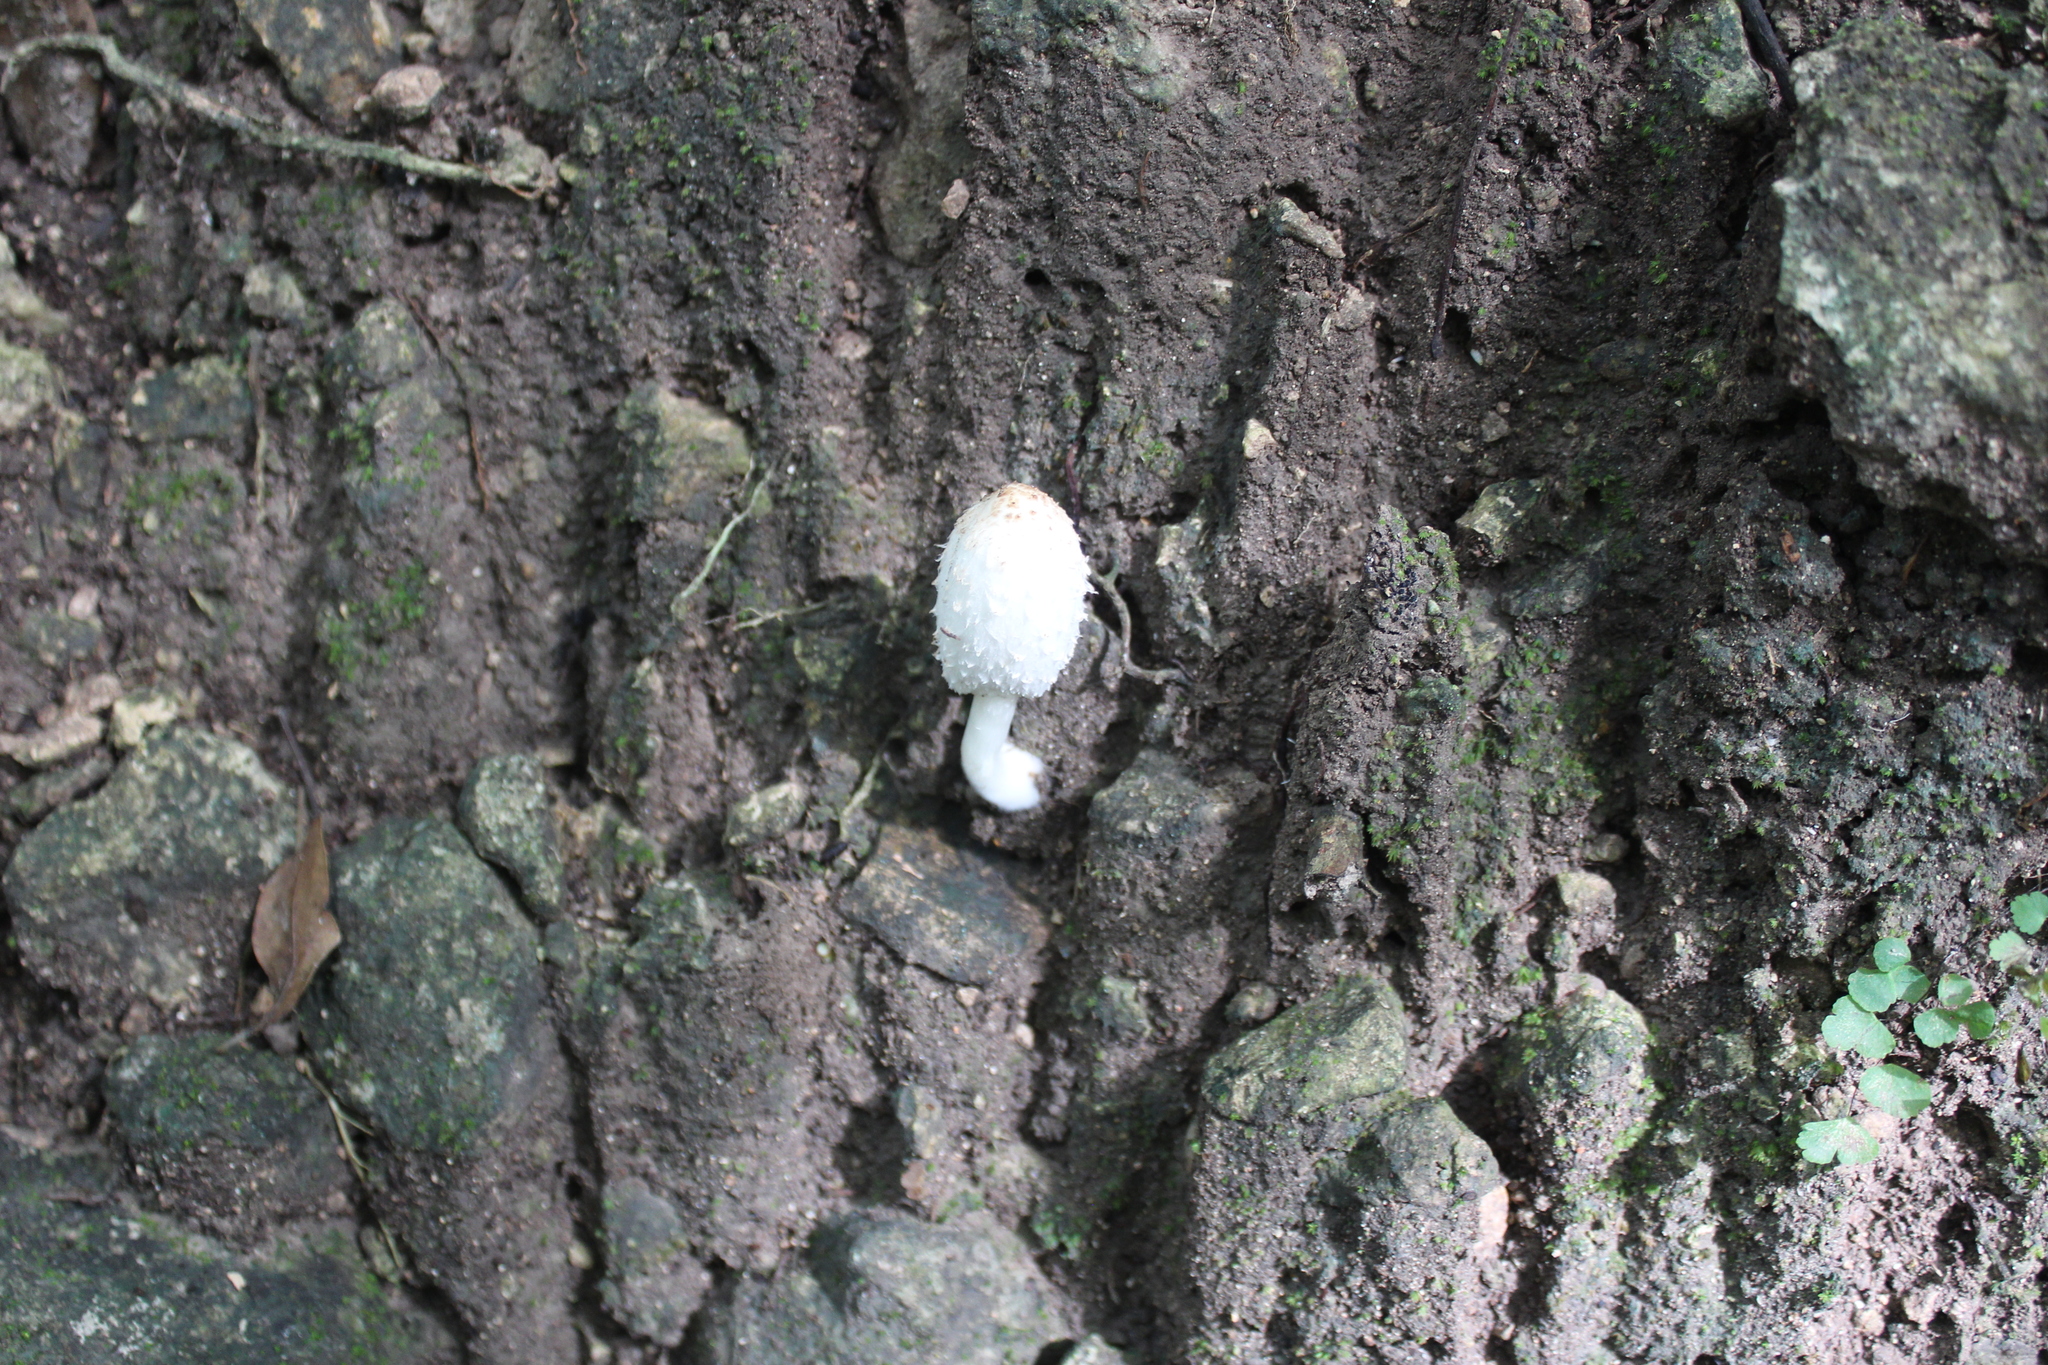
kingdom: Fungi
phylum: Basidiomycota
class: Agaricomycetes
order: Agaricales
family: Agaricaceae
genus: Coprinus
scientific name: Coprinus comatus
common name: Lawyer's wig
